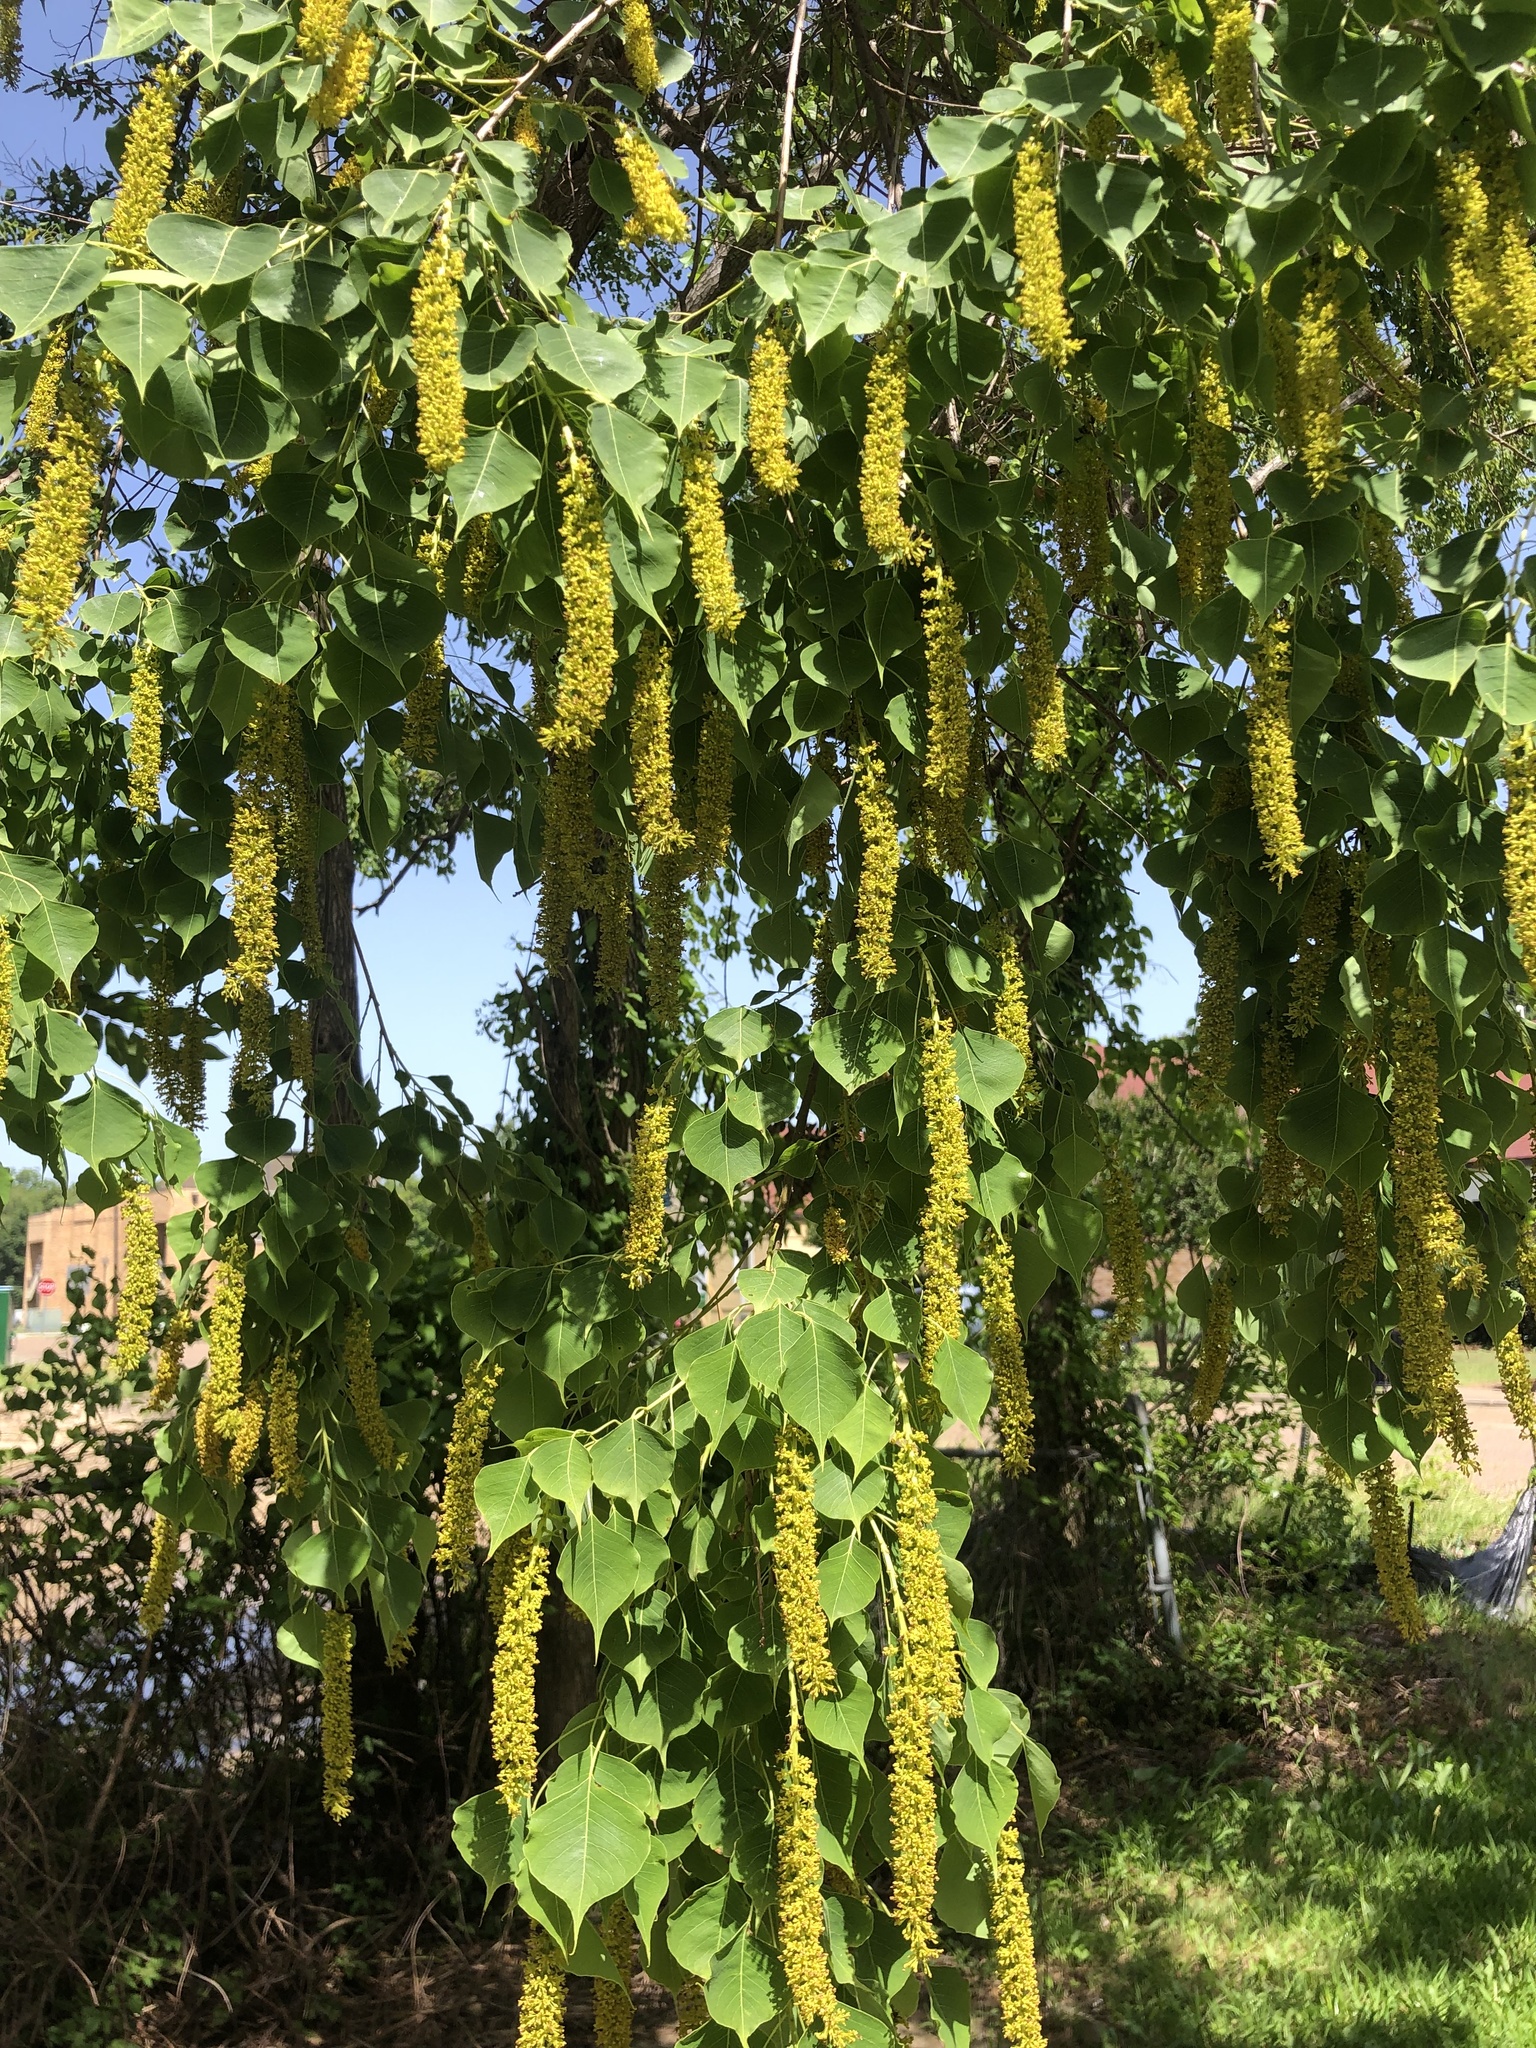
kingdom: Plantae
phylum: Tracheophyta
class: Magnoliopsida
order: Malpighiales
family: Euphorbiaceae
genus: Triadica
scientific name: Triadica sebifera
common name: Chinese tallow
